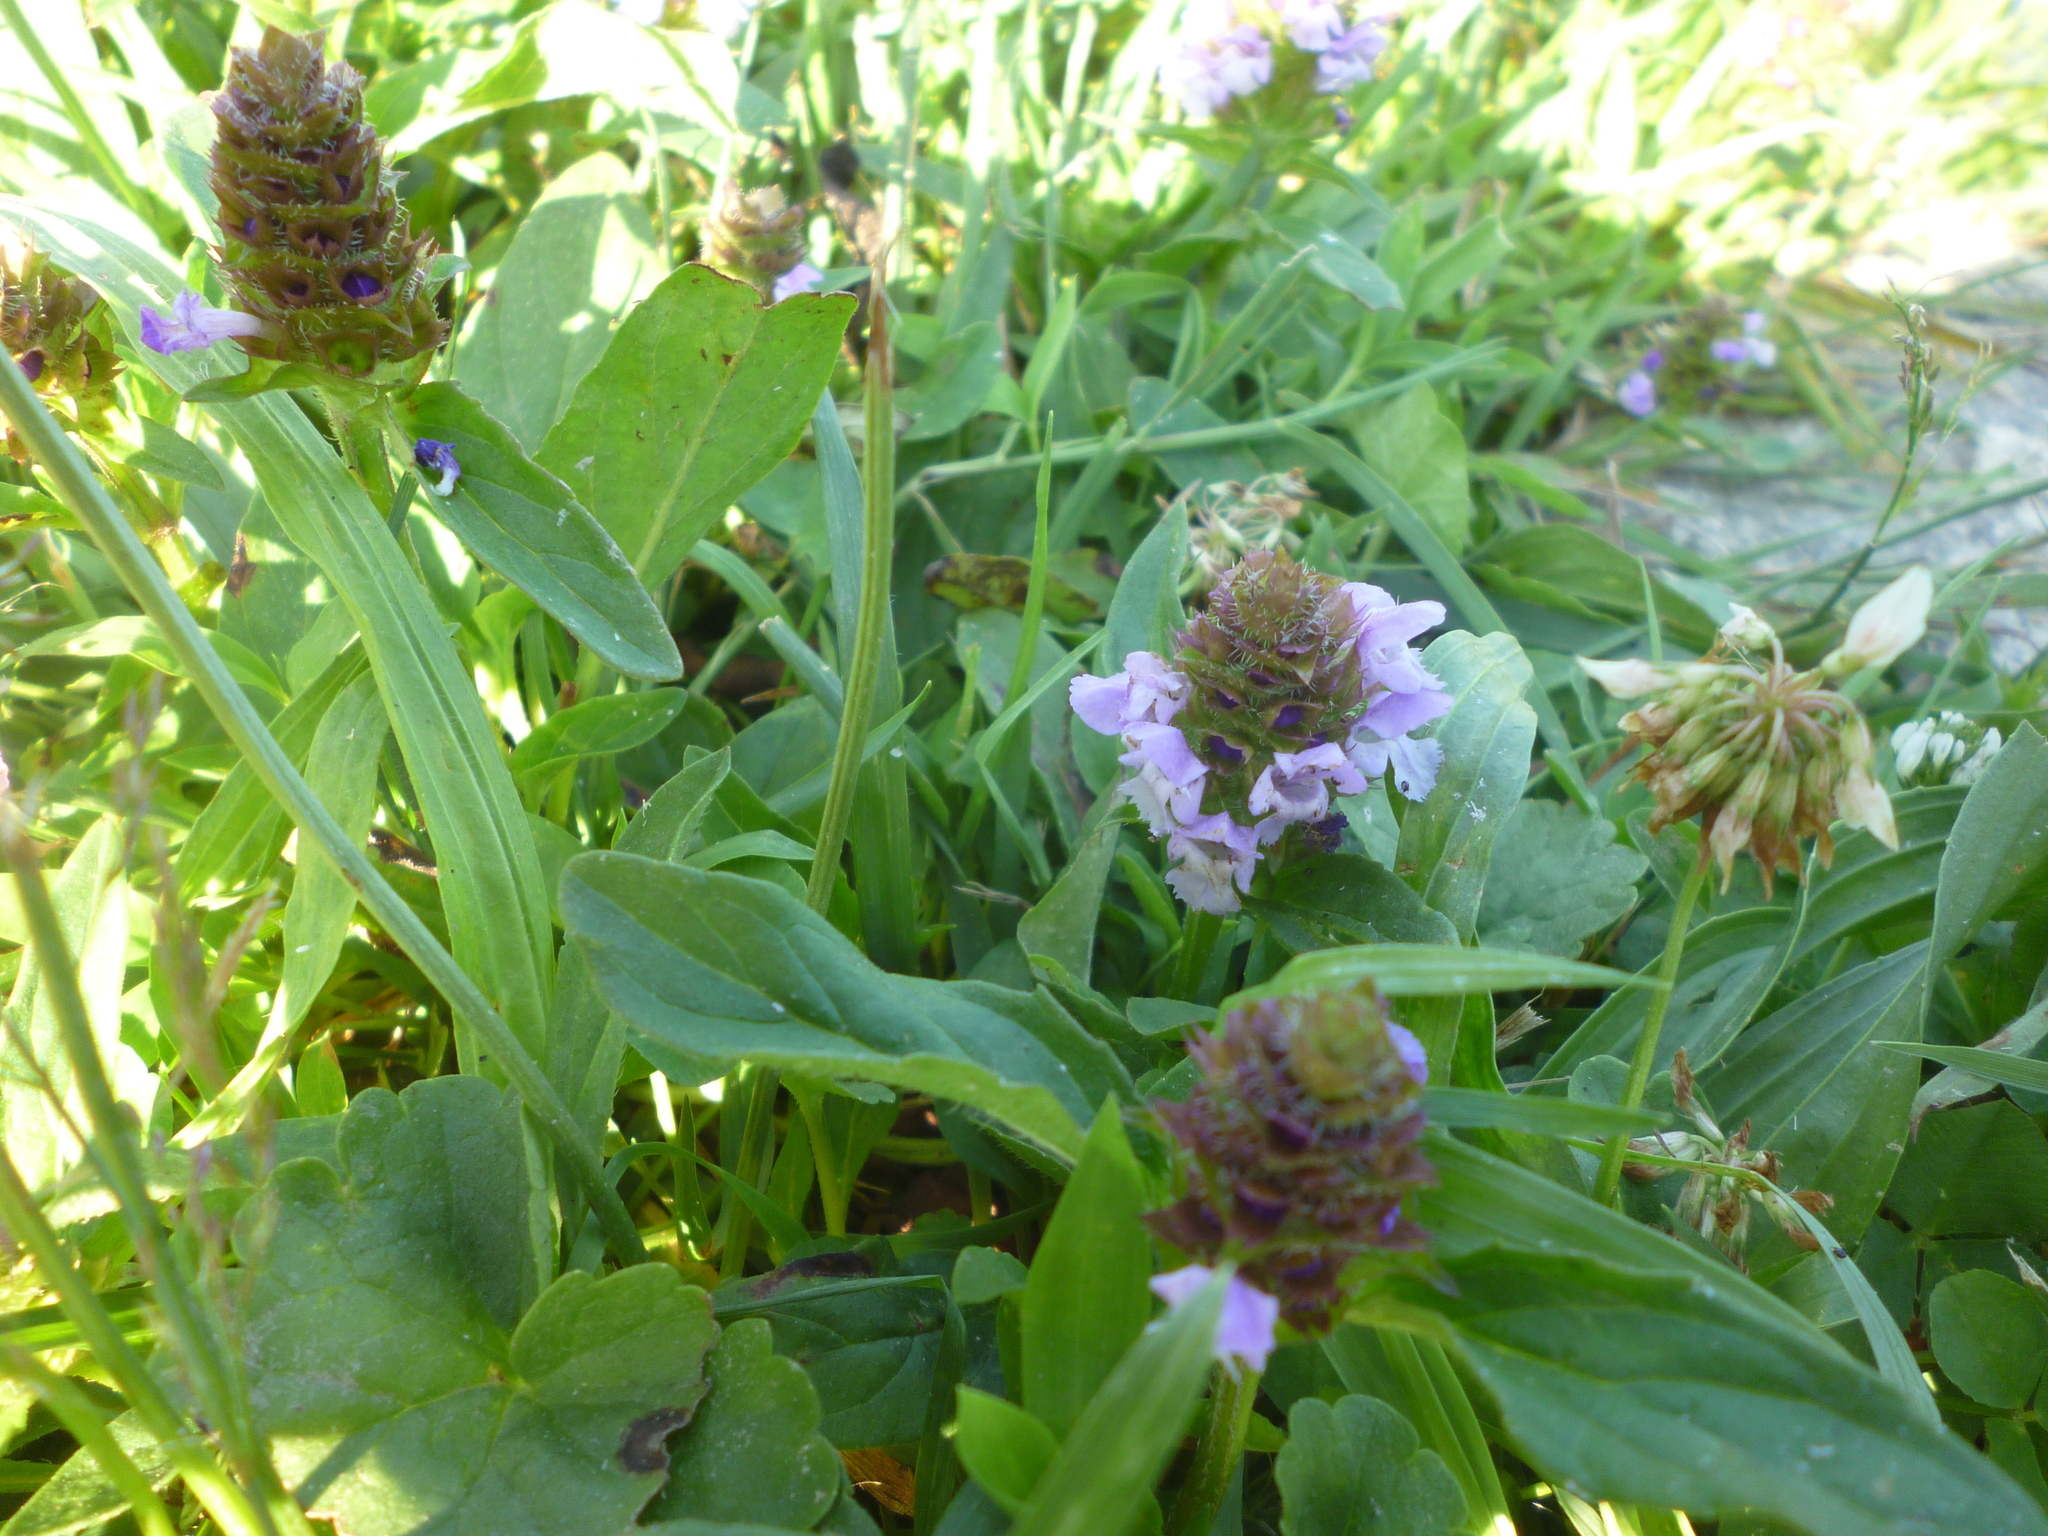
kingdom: Plantae
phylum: Tracheophyta
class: Magnoliopsida
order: Lamiales
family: Lamiaceae
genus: Prunella
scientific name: Prunella vulgaris
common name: Heal-all
